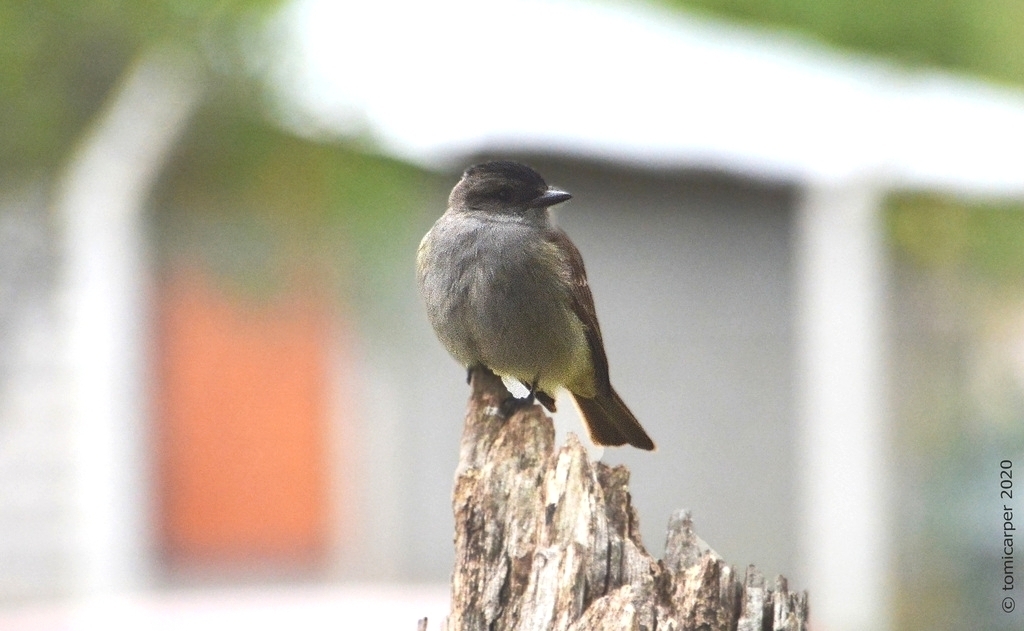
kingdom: Animalia
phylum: Chordata
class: Aves
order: Passeriformes
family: Tyrannidae
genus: Empidonomus
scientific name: Empidonomus aurantioatrocristatus
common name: Crowned slaty flycatcher
